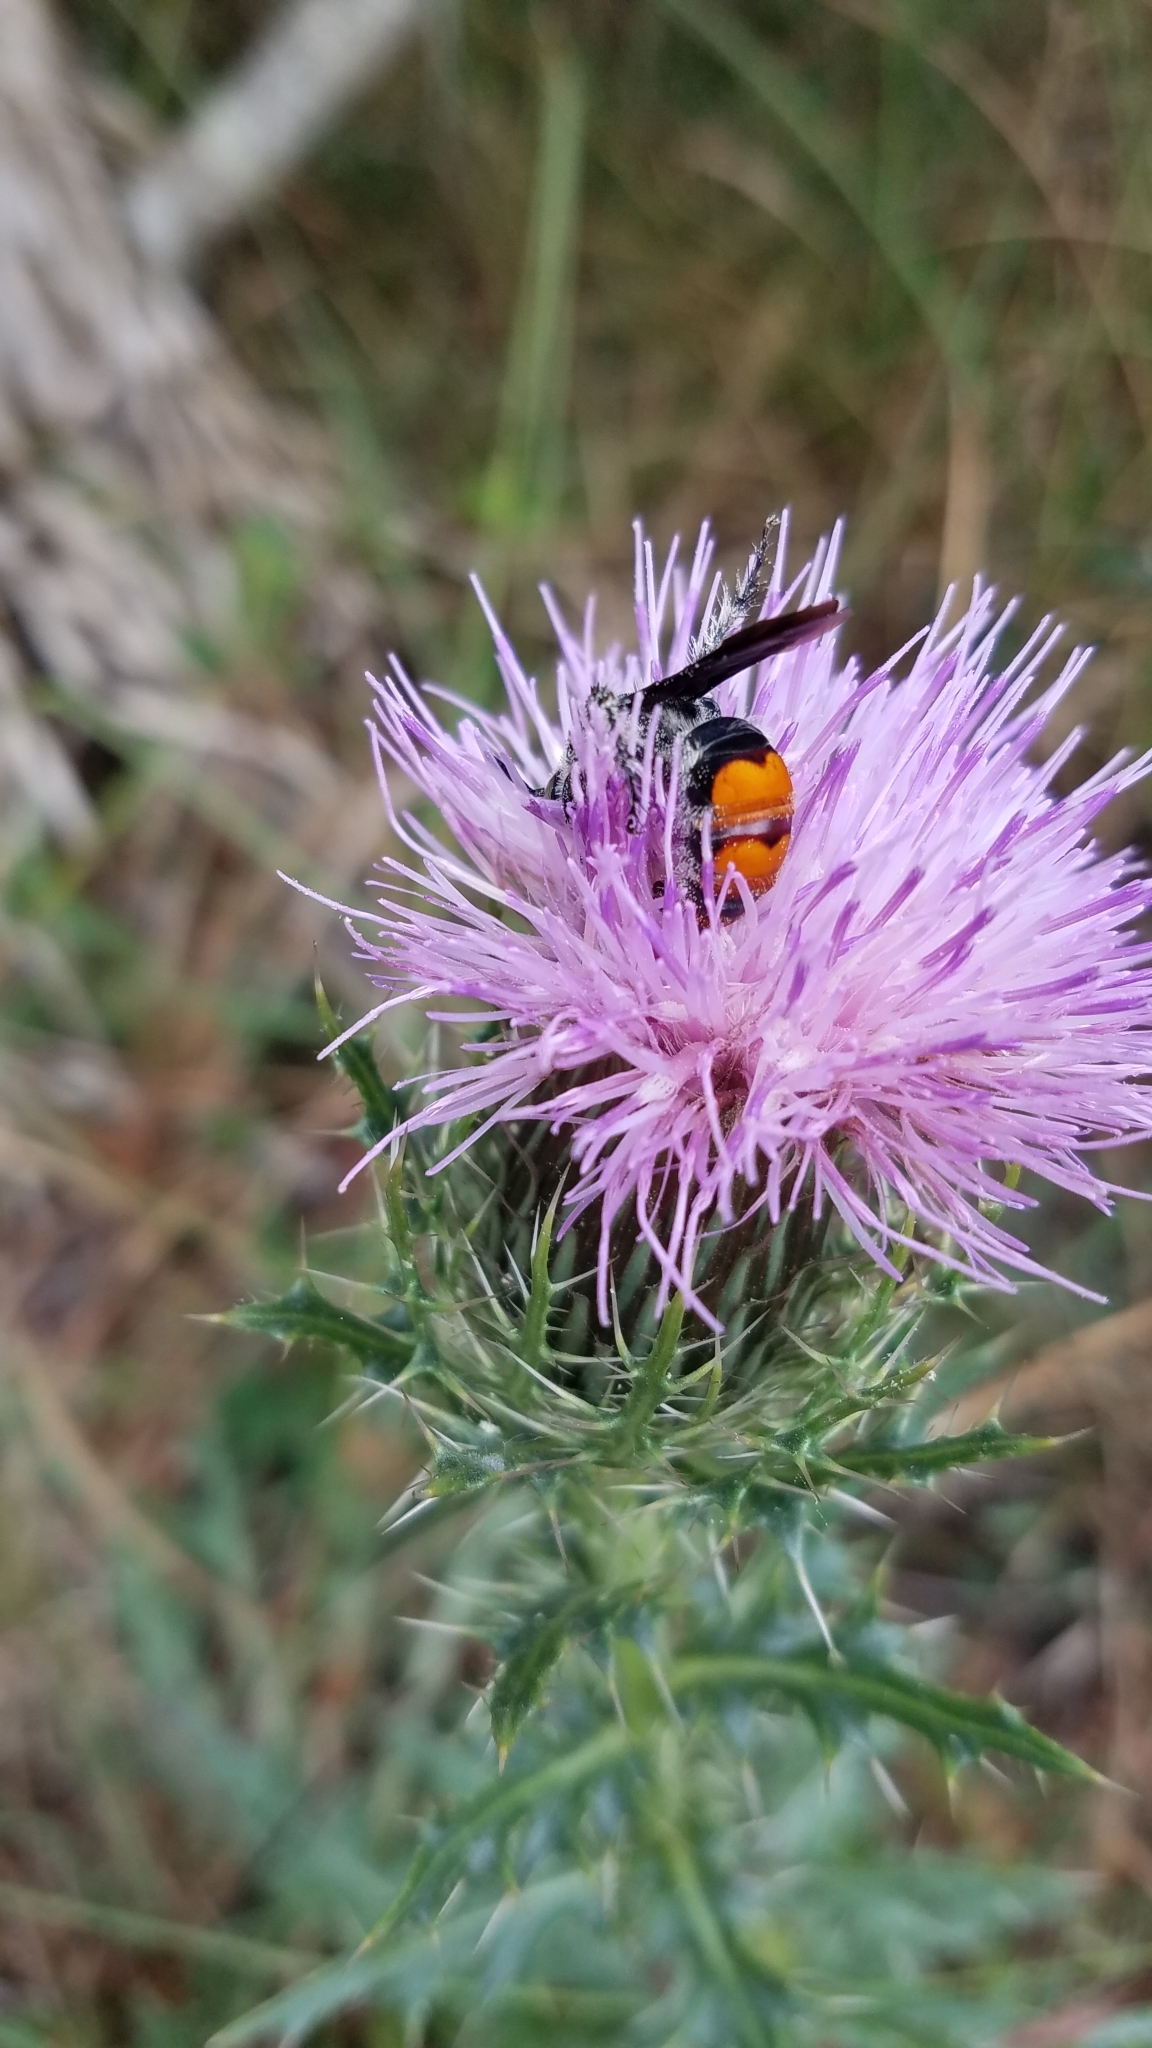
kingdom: Animalia
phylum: Arthropoda
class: Insecta
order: Hymenoptera
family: Scoliidae
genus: Dielis
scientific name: Dielis dorsata
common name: Scoliid wasp
